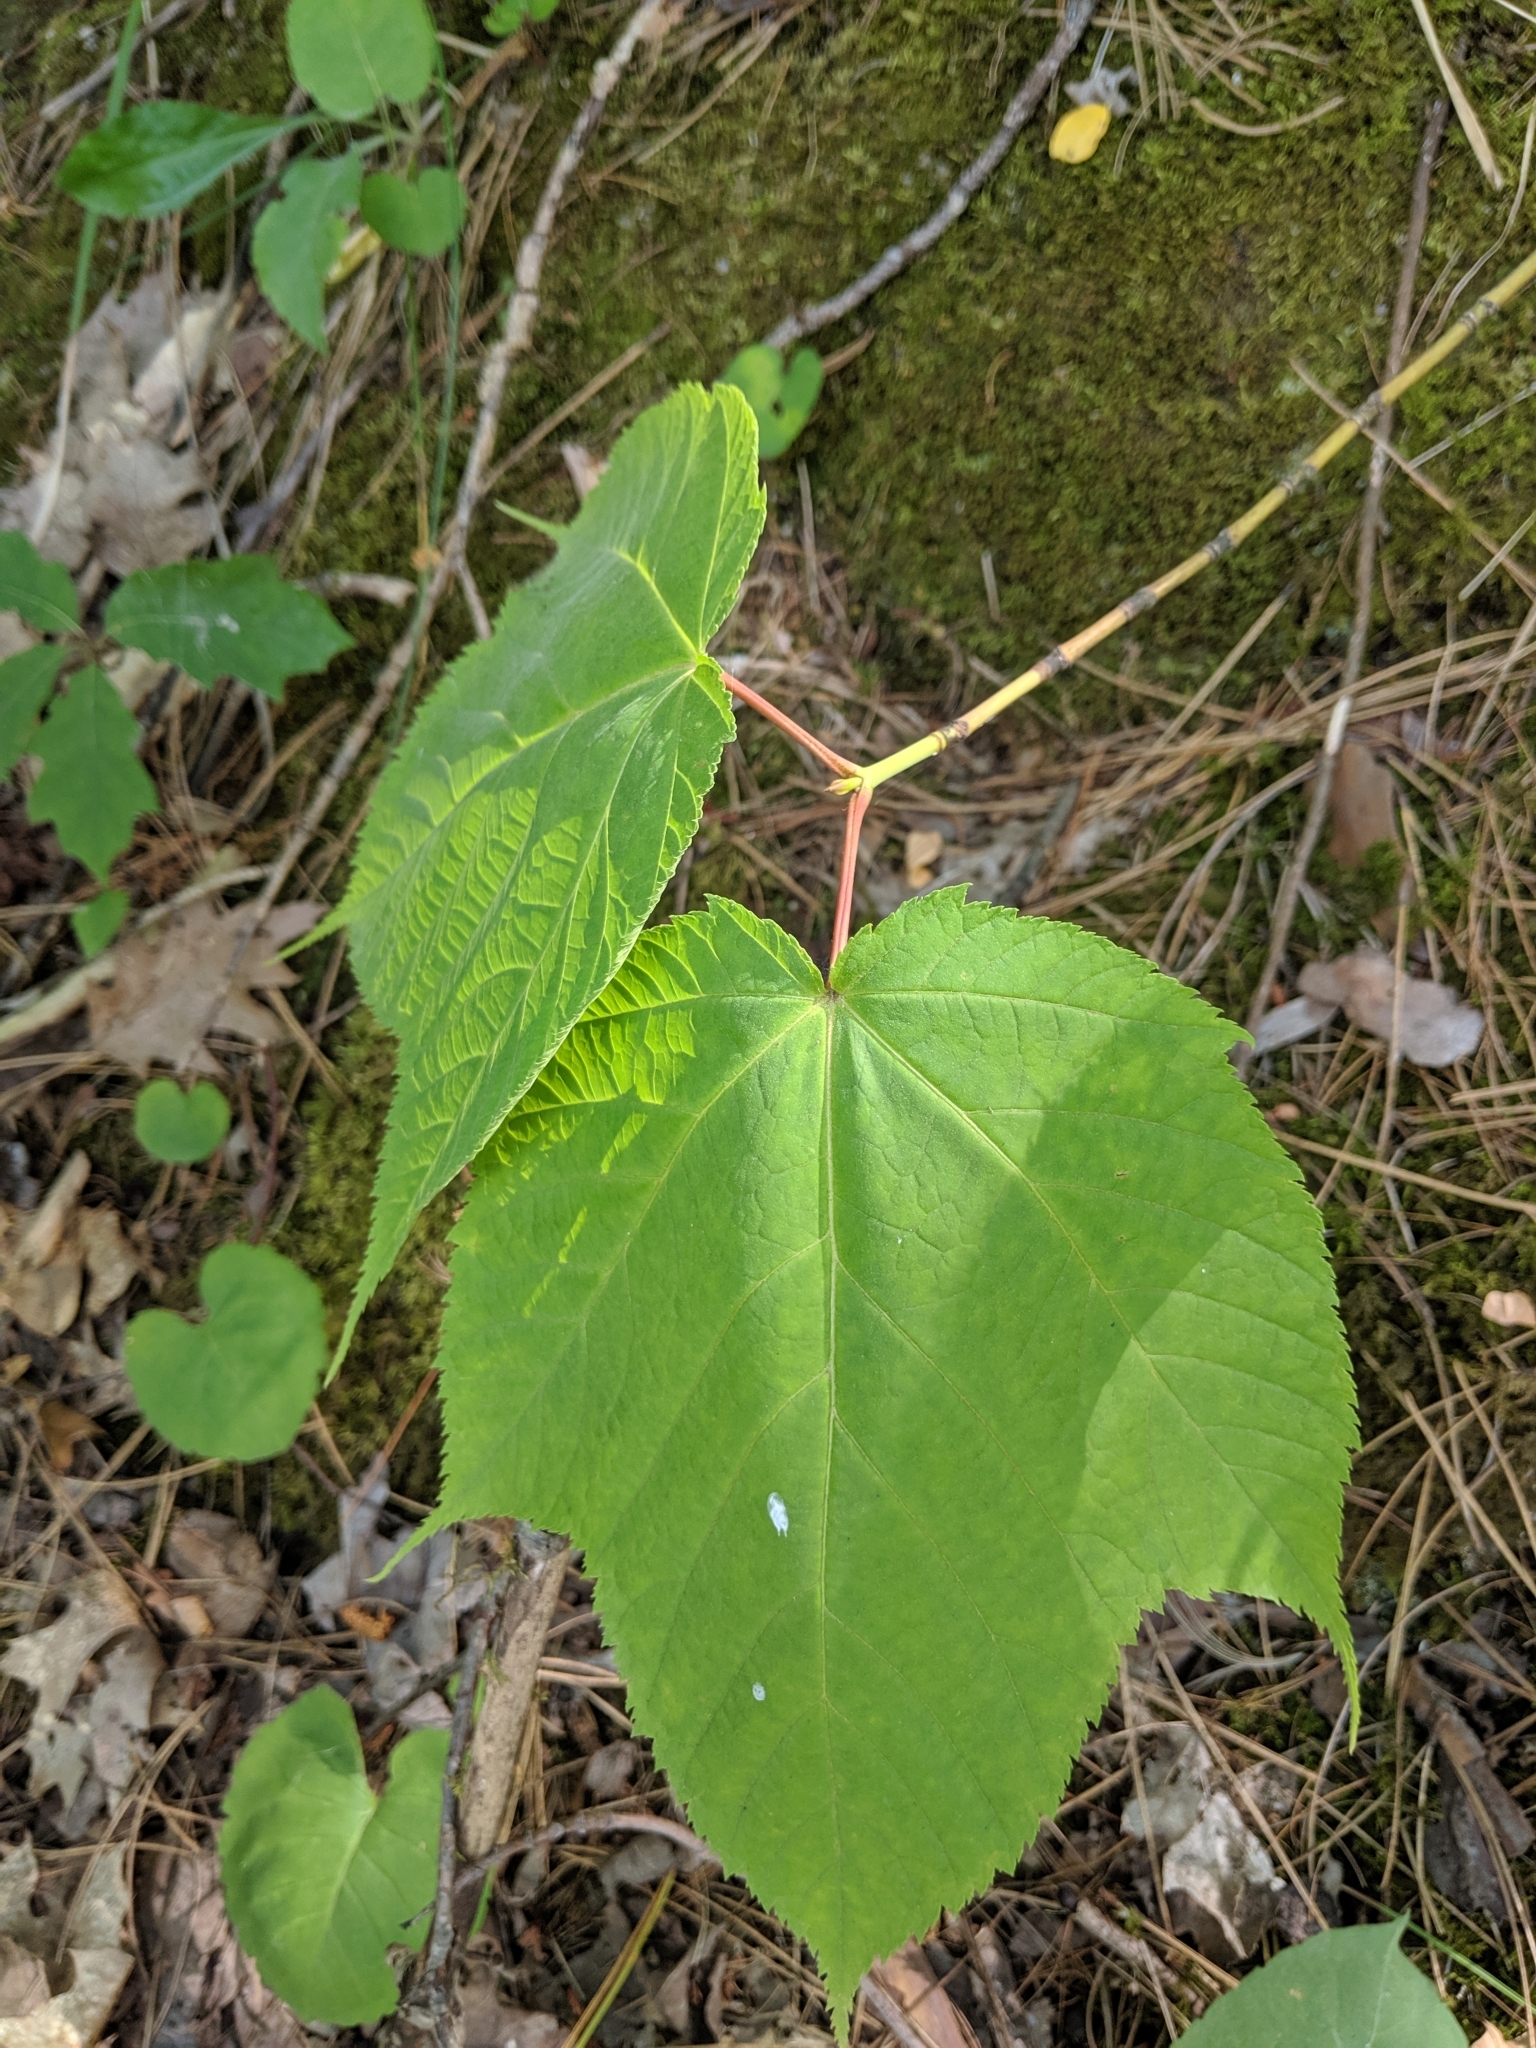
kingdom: Plantae
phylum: Tracheophyta
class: Magnoliopsida
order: Sapindales
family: Sapindaceae
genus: Acer
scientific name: Acer pensylvanicum
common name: Moosewood
